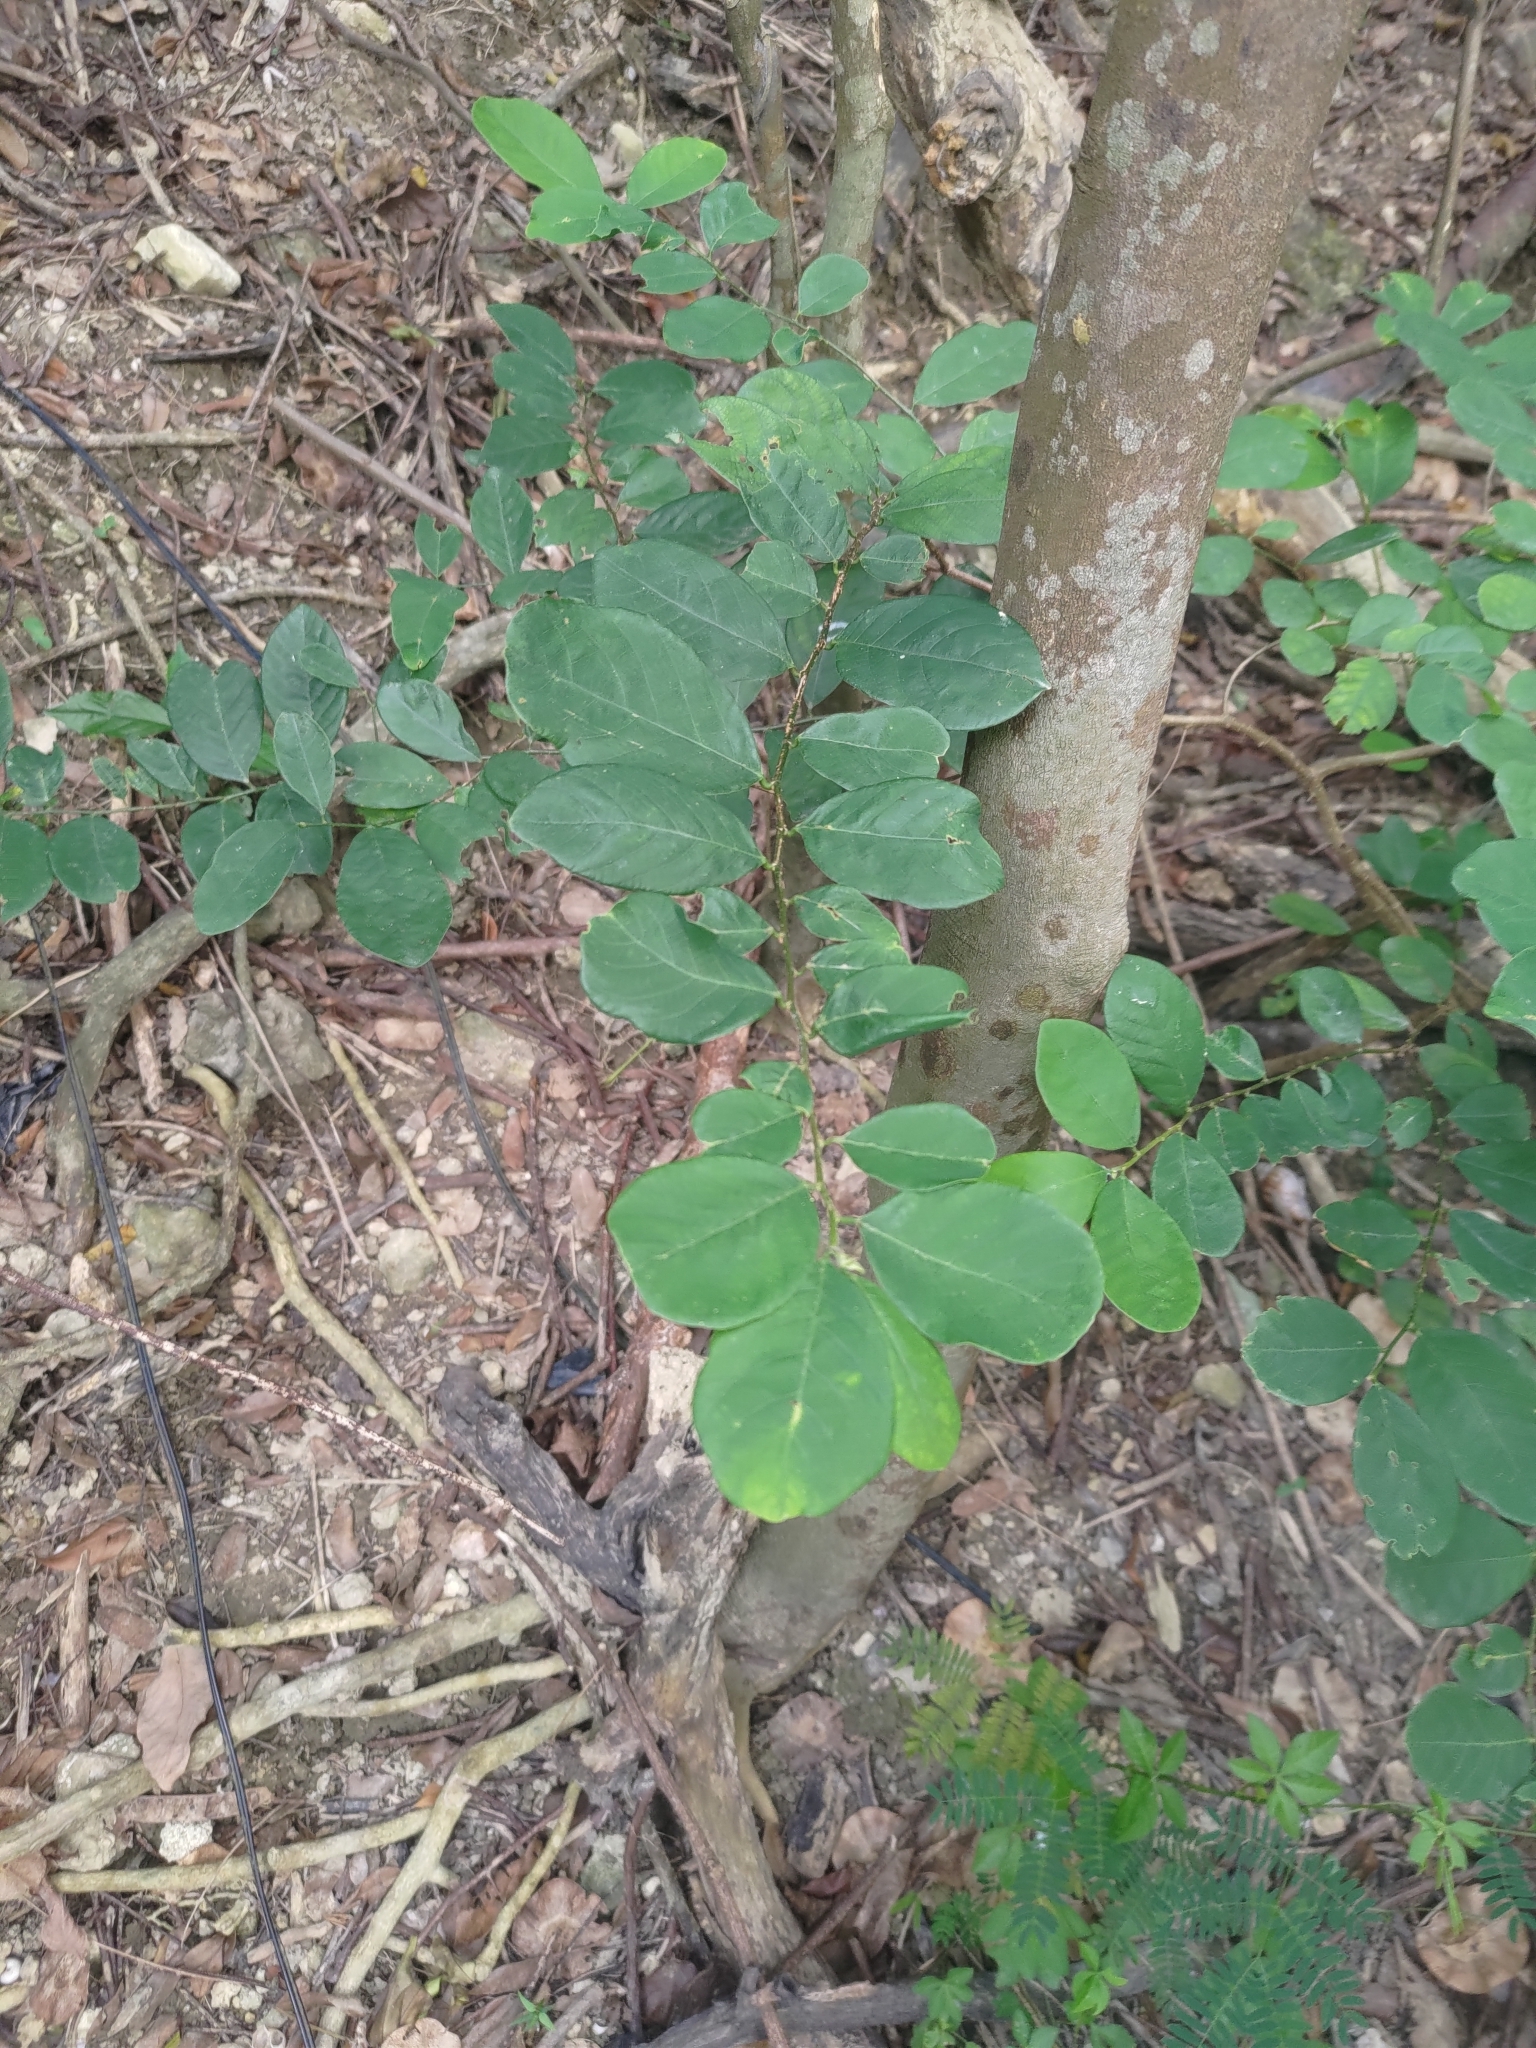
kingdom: Plantae
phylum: Tracheophyta
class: Magnoliopsida
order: Malpighiales
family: Phyllanthaceae
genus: Bridelia
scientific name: Bridelia tomentosa
